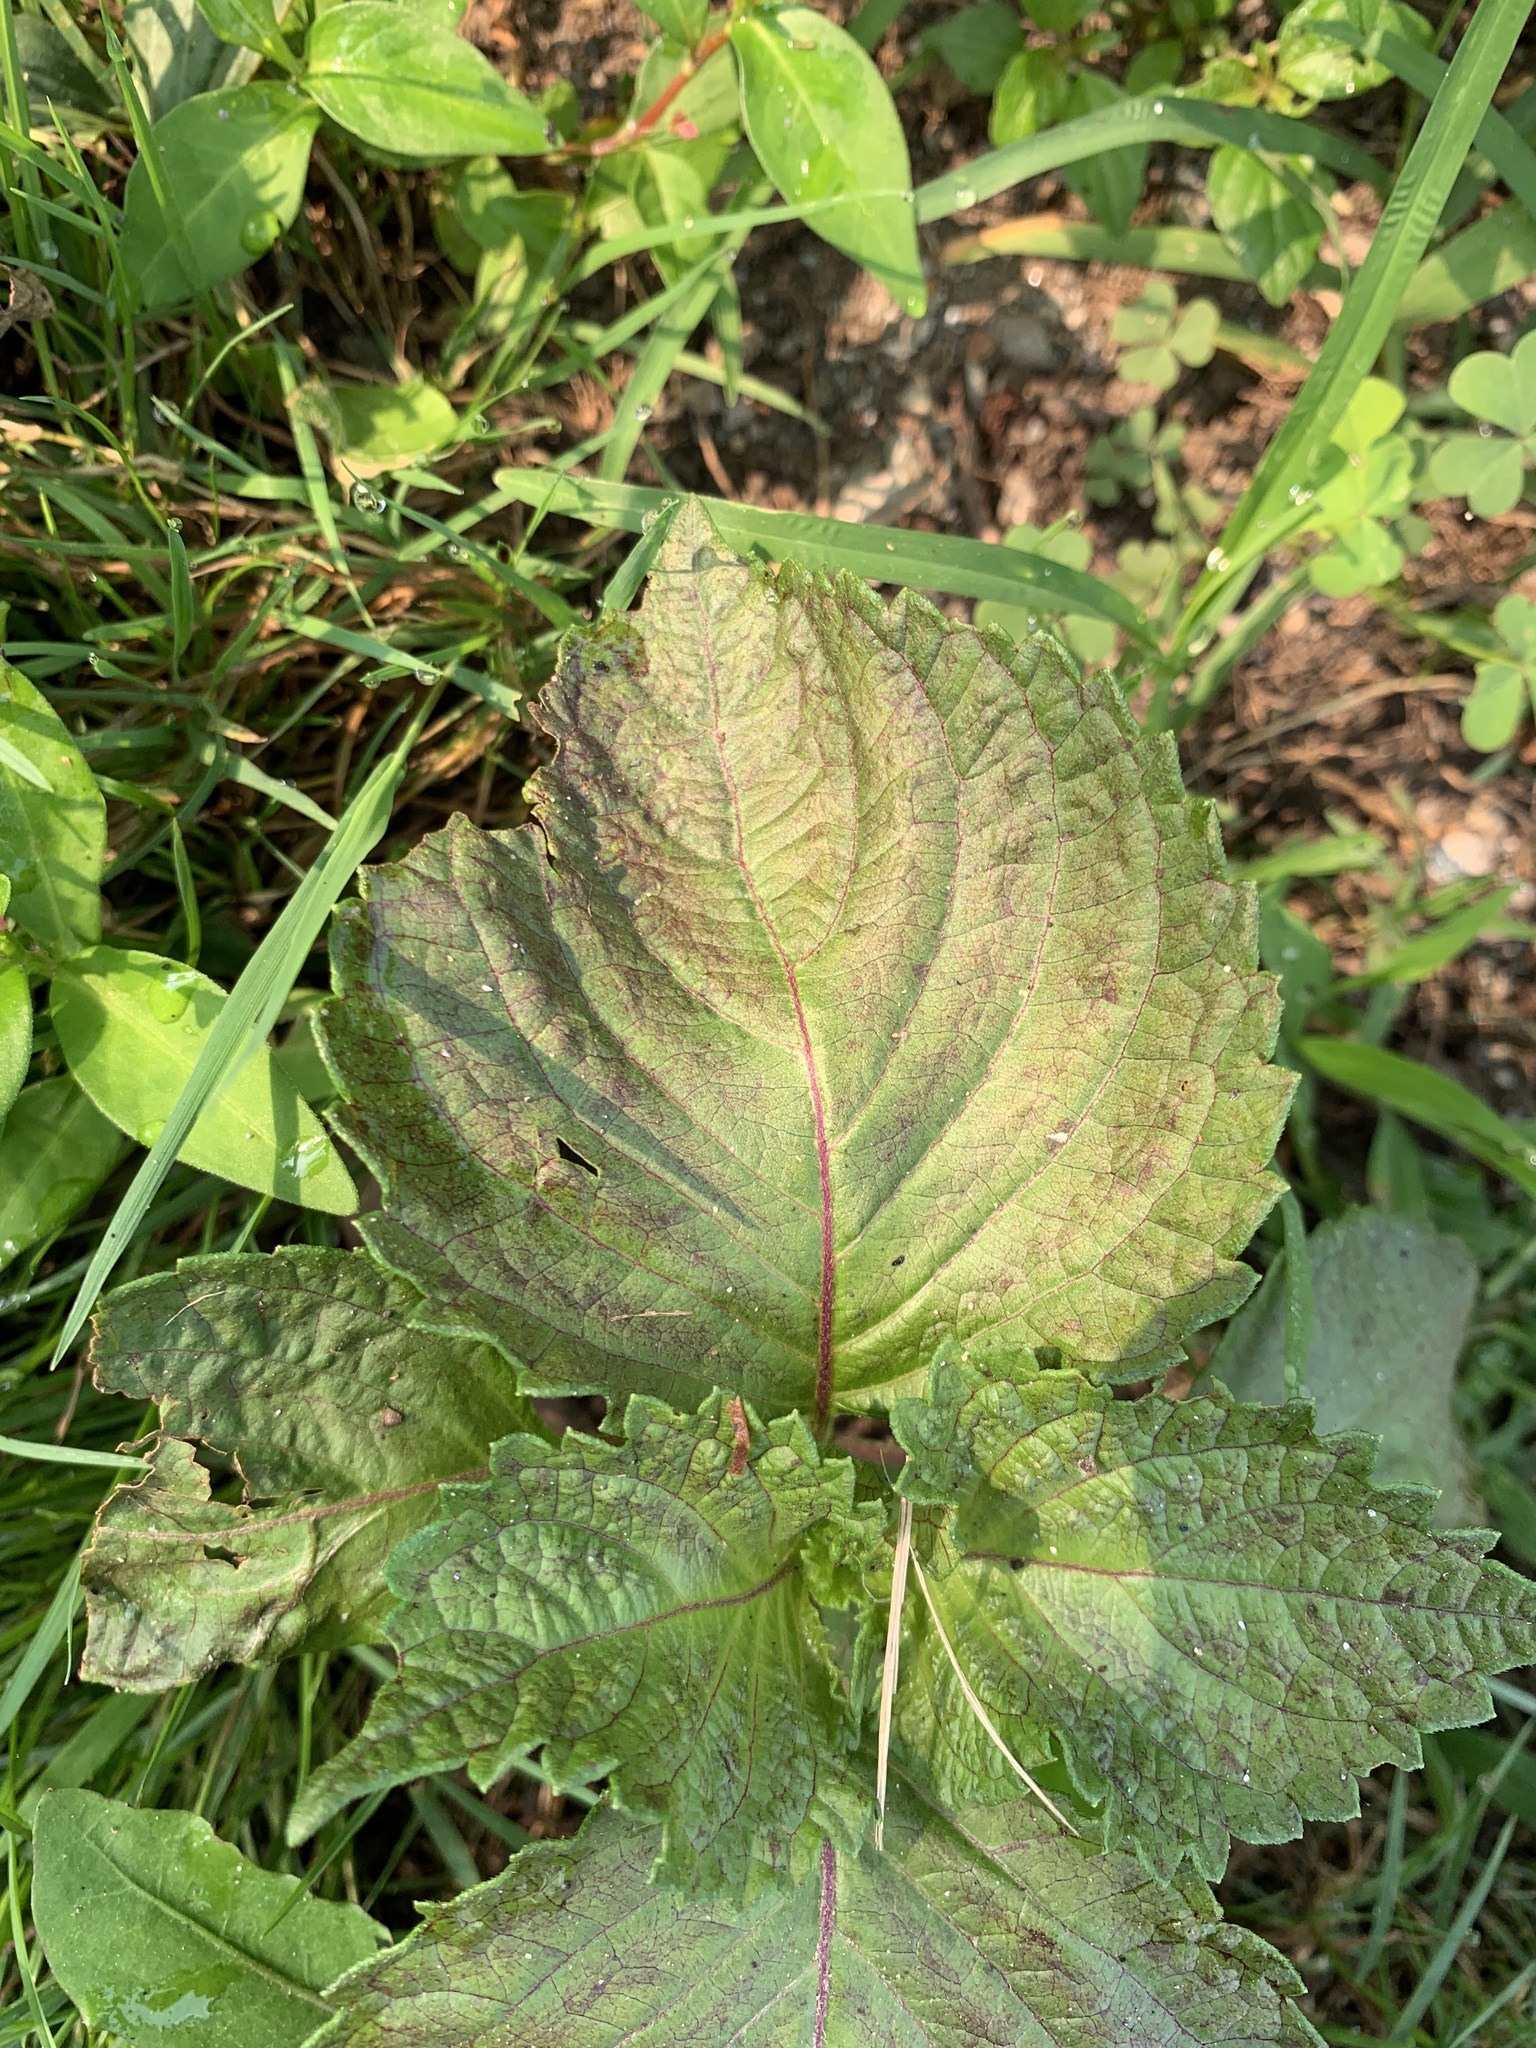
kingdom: Plantae
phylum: Tracheophyta
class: Magnoliopsida
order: Lamiales
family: Lamiaceae
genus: Perilla
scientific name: Perilla frutescens
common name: Perilla
